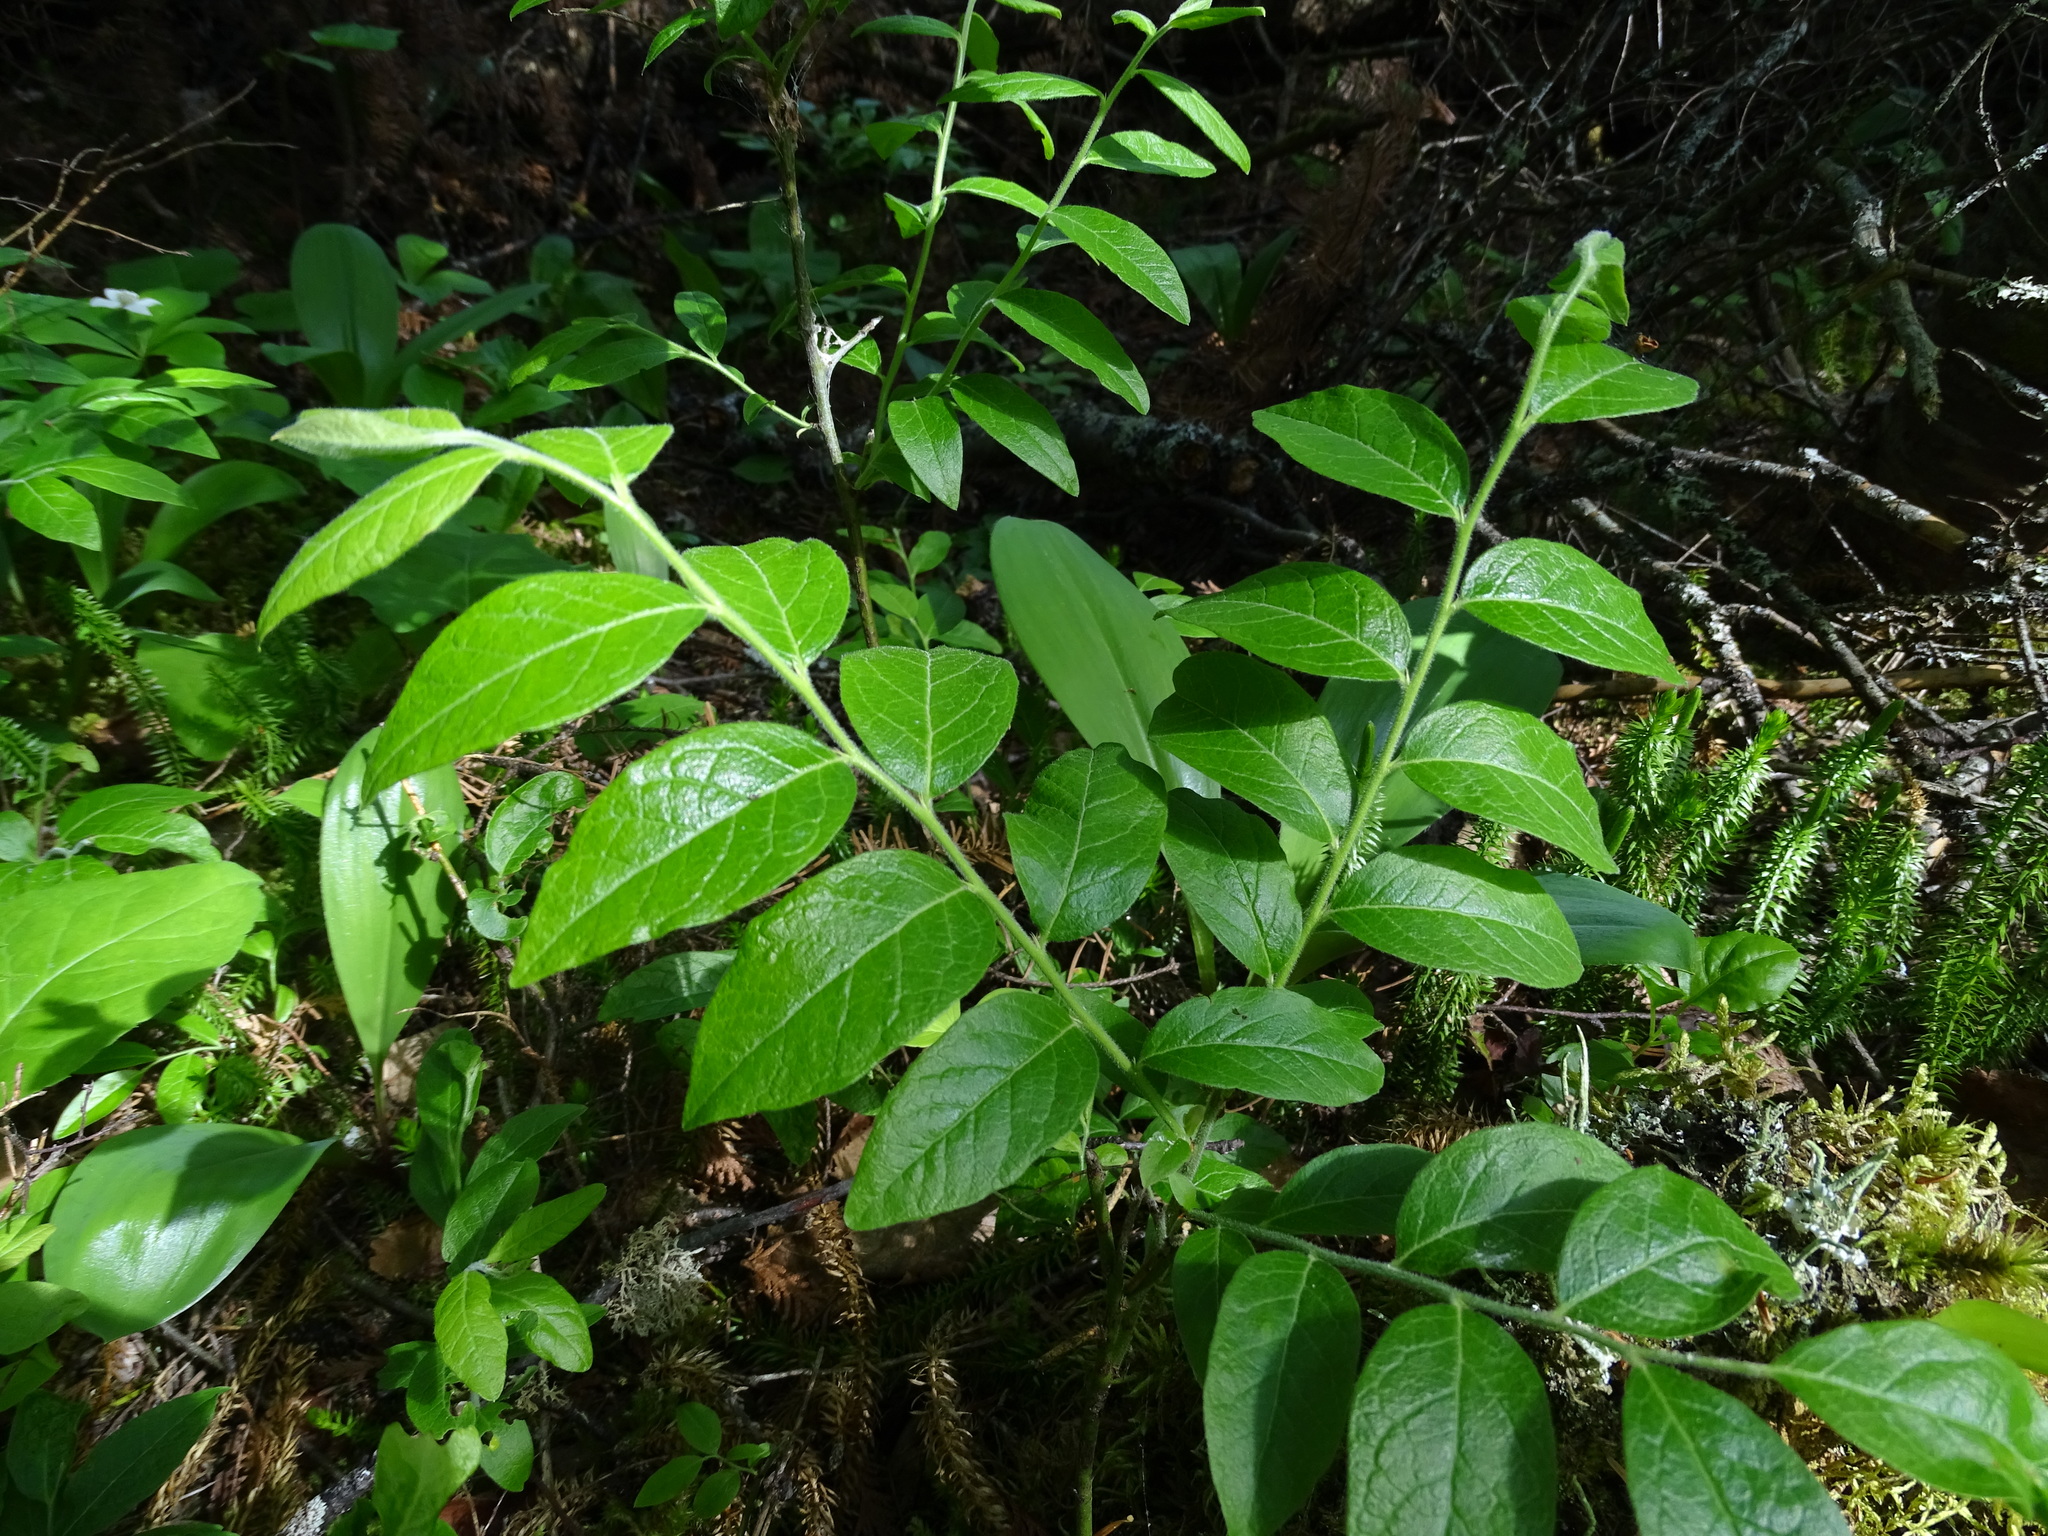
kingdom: Plantae
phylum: Tracheophyta
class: Magnoliopsida
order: Ericales
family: Ericaceae
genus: Vaccinium
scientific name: Vaccinium myrtilloides
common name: Canada blueberry
